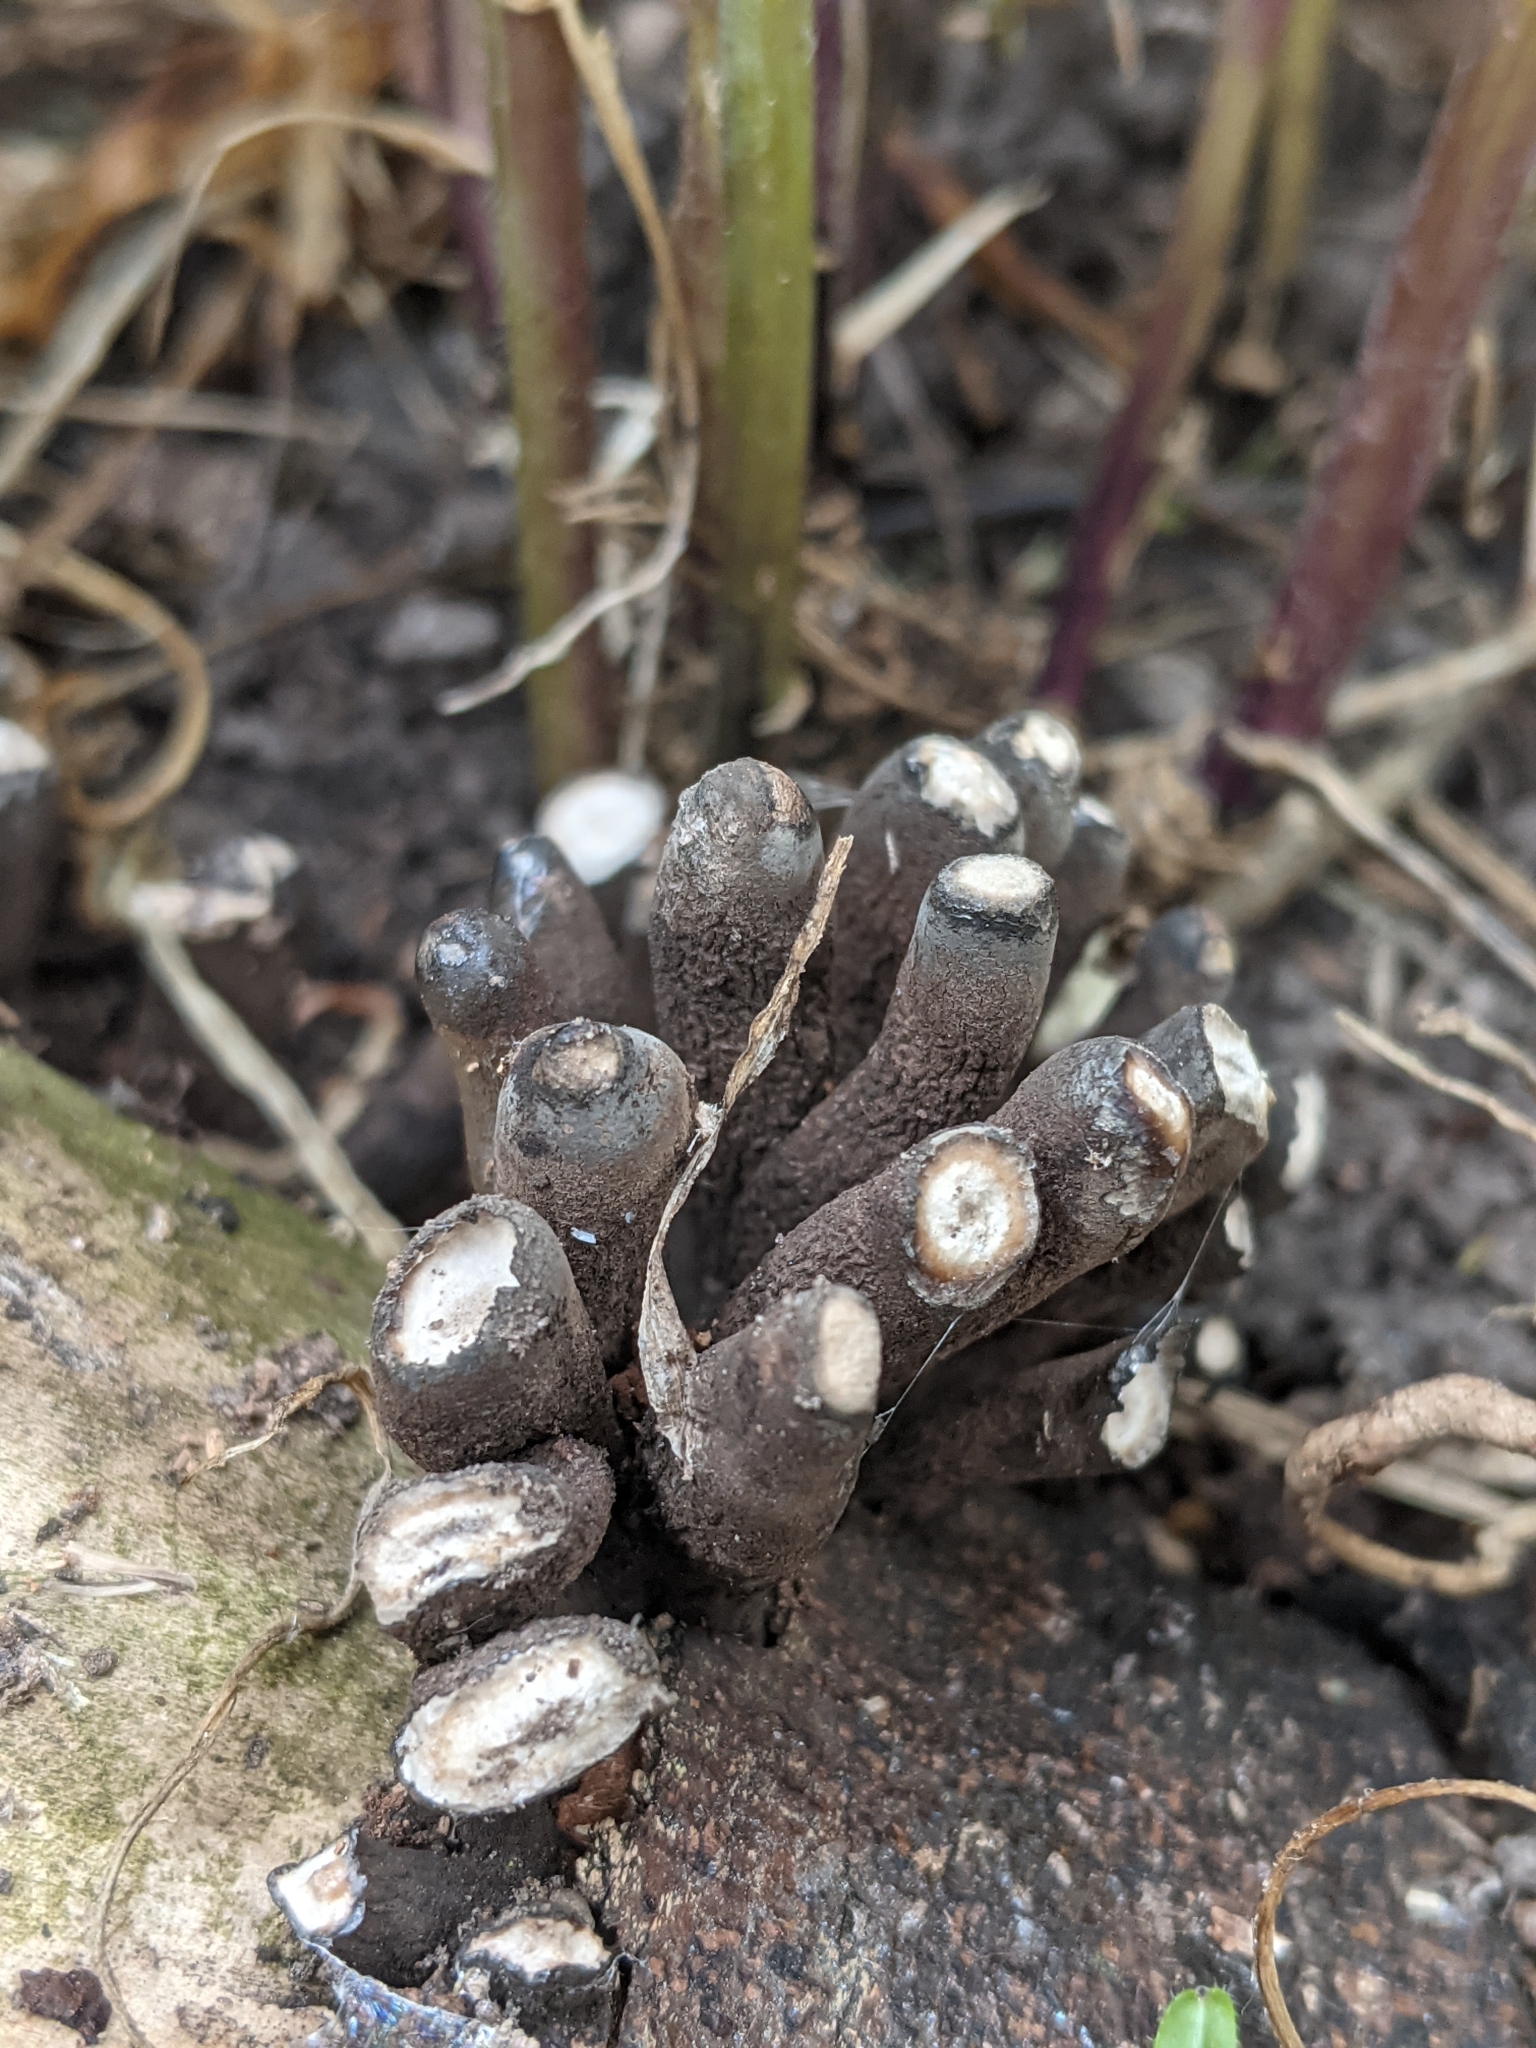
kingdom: Fungi
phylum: Ascomycota
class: Sordariomycetes
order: Xylariales
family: Xylariaceae
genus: Xylaria
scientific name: Xylaria polymorpha
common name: Dead man's fingers
